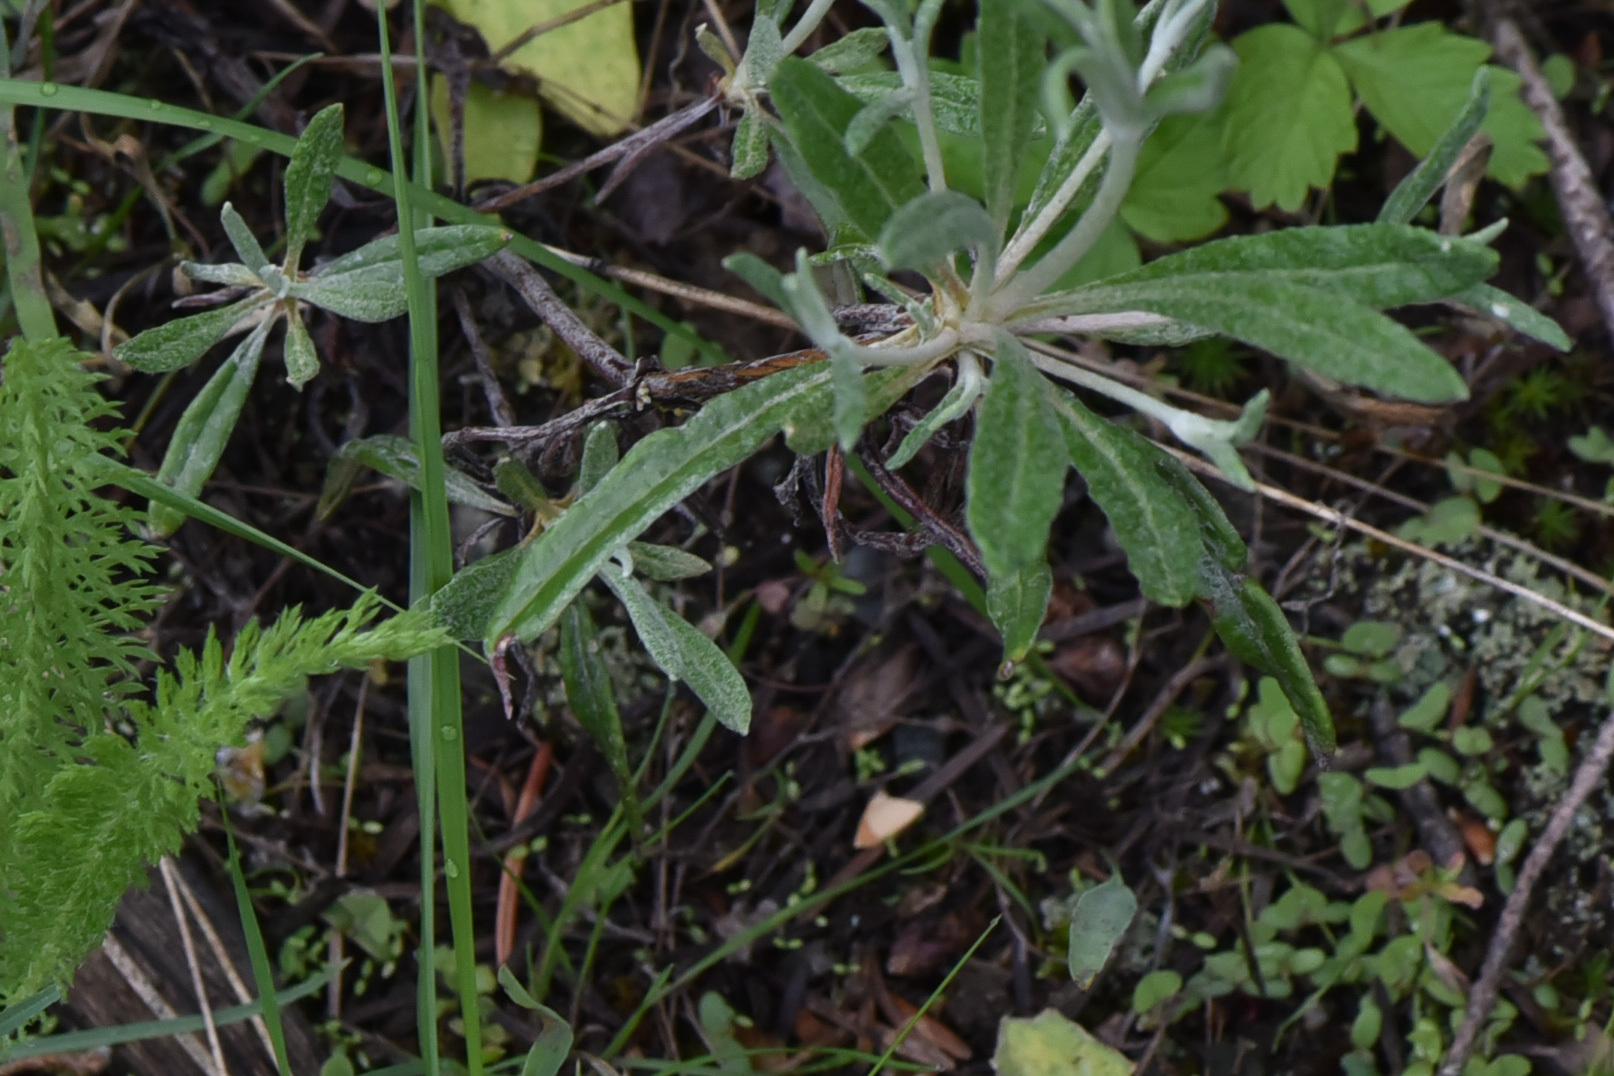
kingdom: Plantae
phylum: Tracheophyta
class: Magnoliopsida
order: Caryophyllales
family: Polygonaceae
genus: Eriogonum
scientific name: Eriogonum heracleoides
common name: Wyeth's buckwheat
